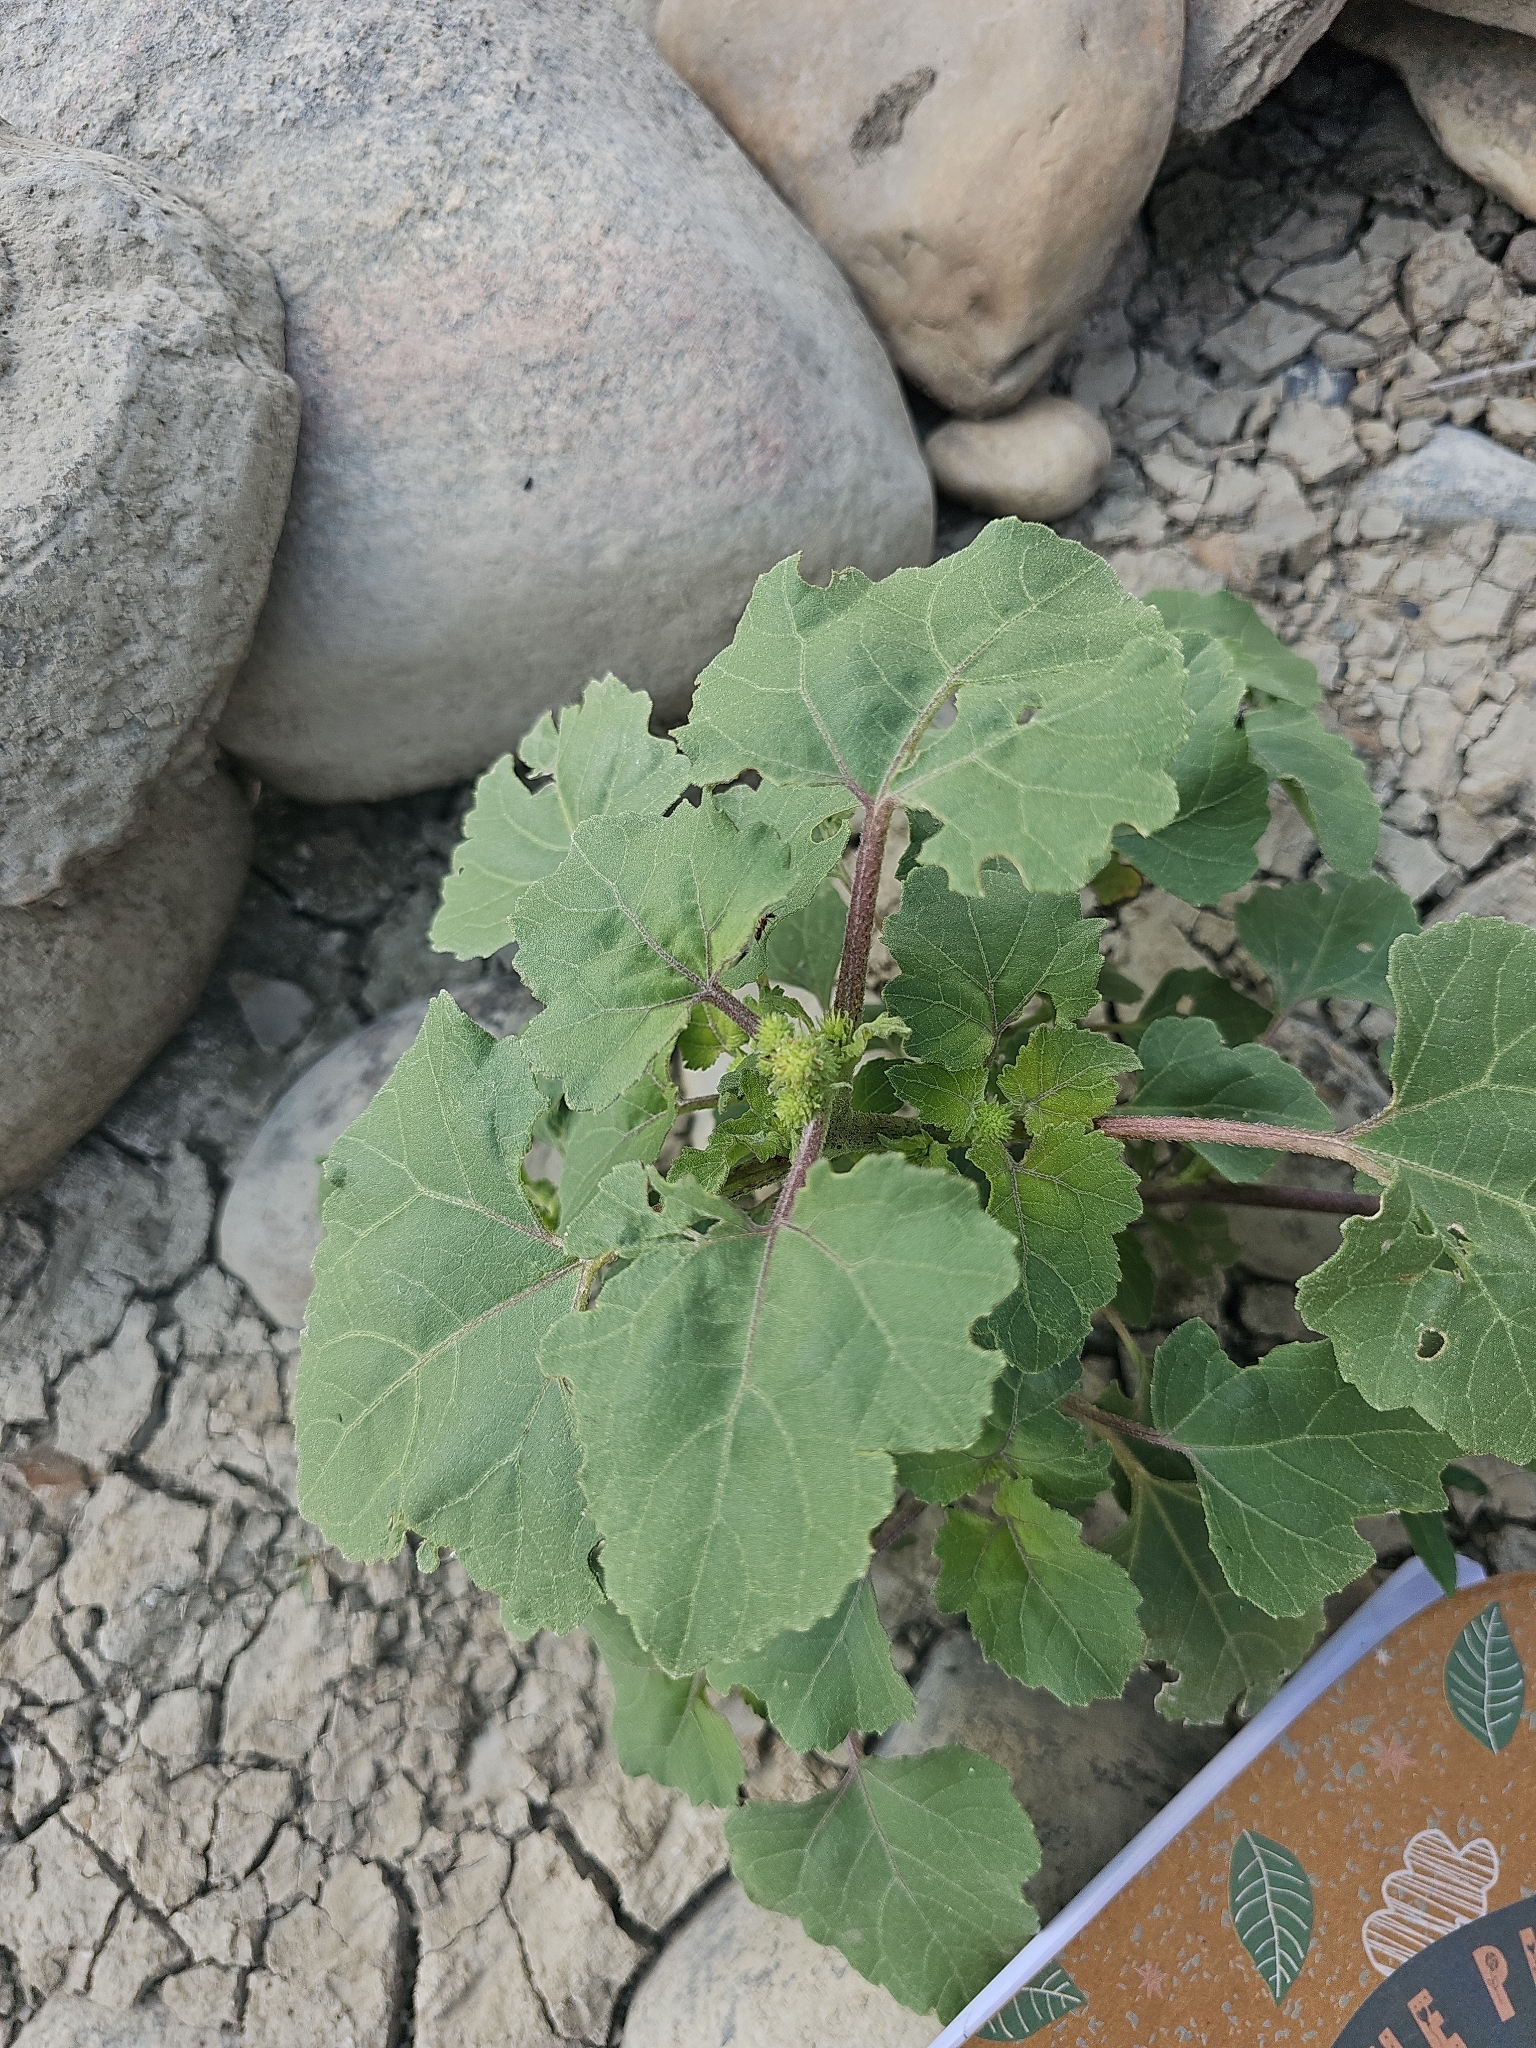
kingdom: Plantae
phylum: Tracheophyta
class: Magnoliopsida
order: Asterales
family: Asteraceae
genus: Xanthium
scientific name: Xanthium strumarium
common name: Rough cocklebur
